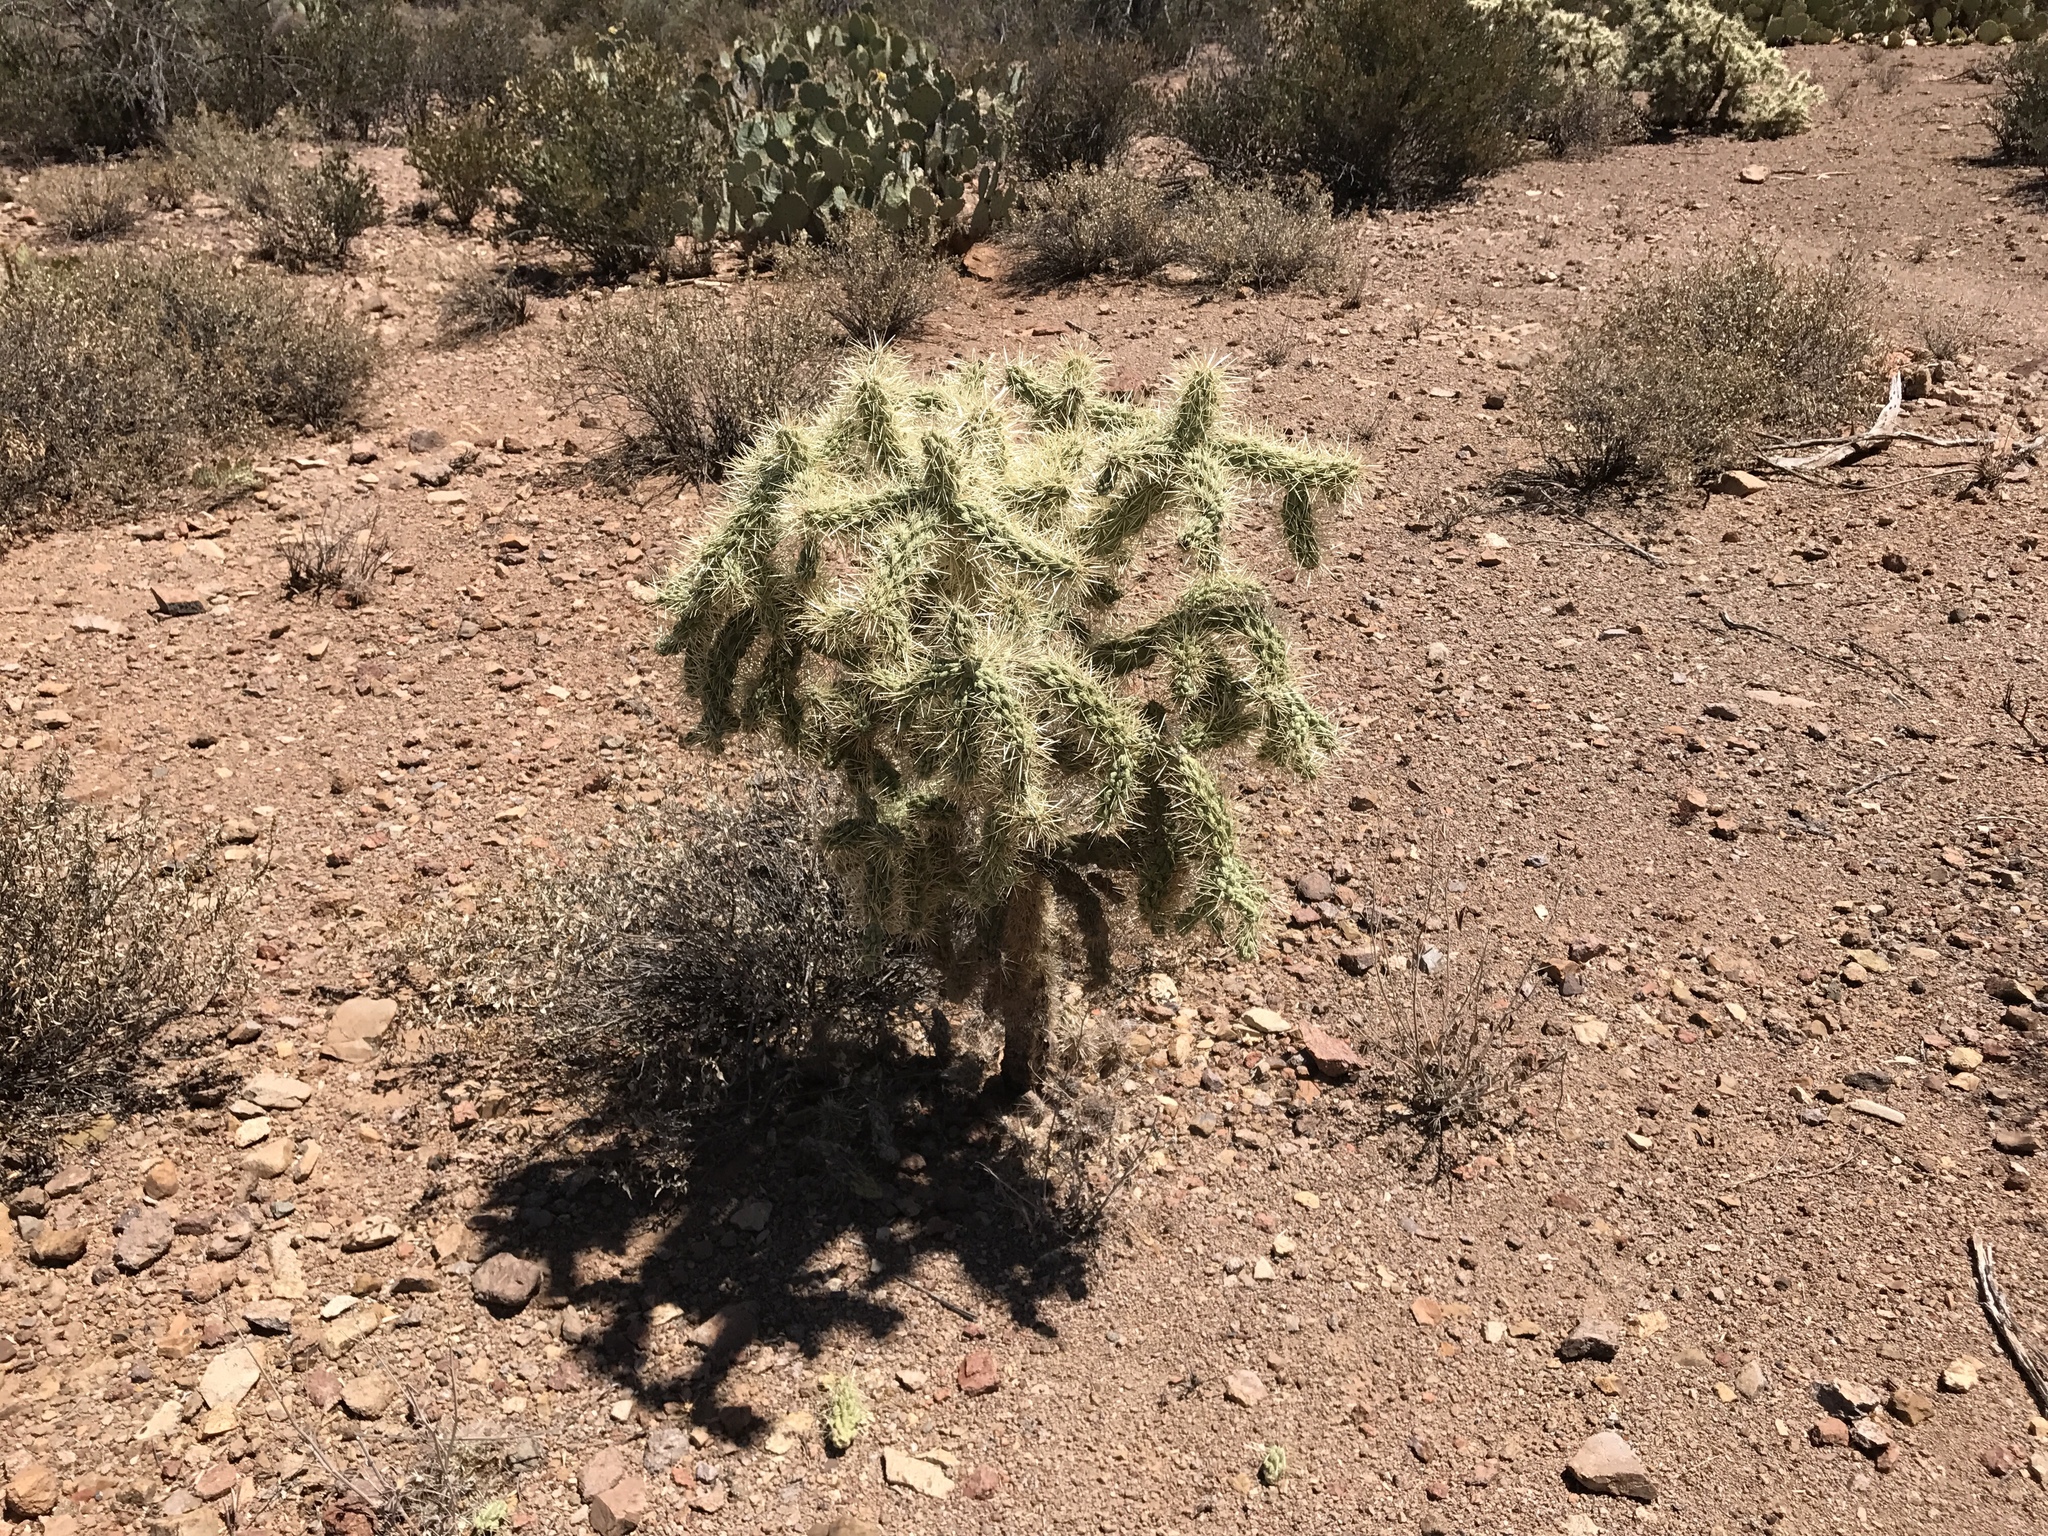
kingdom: Plantae
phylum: Tracheophyta
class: Magnoliopsida
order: Caryophyllales
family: Cactaceae
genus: Cylindropuntia
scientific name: Cylindropuntia fulgida
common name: Jumping cholla
